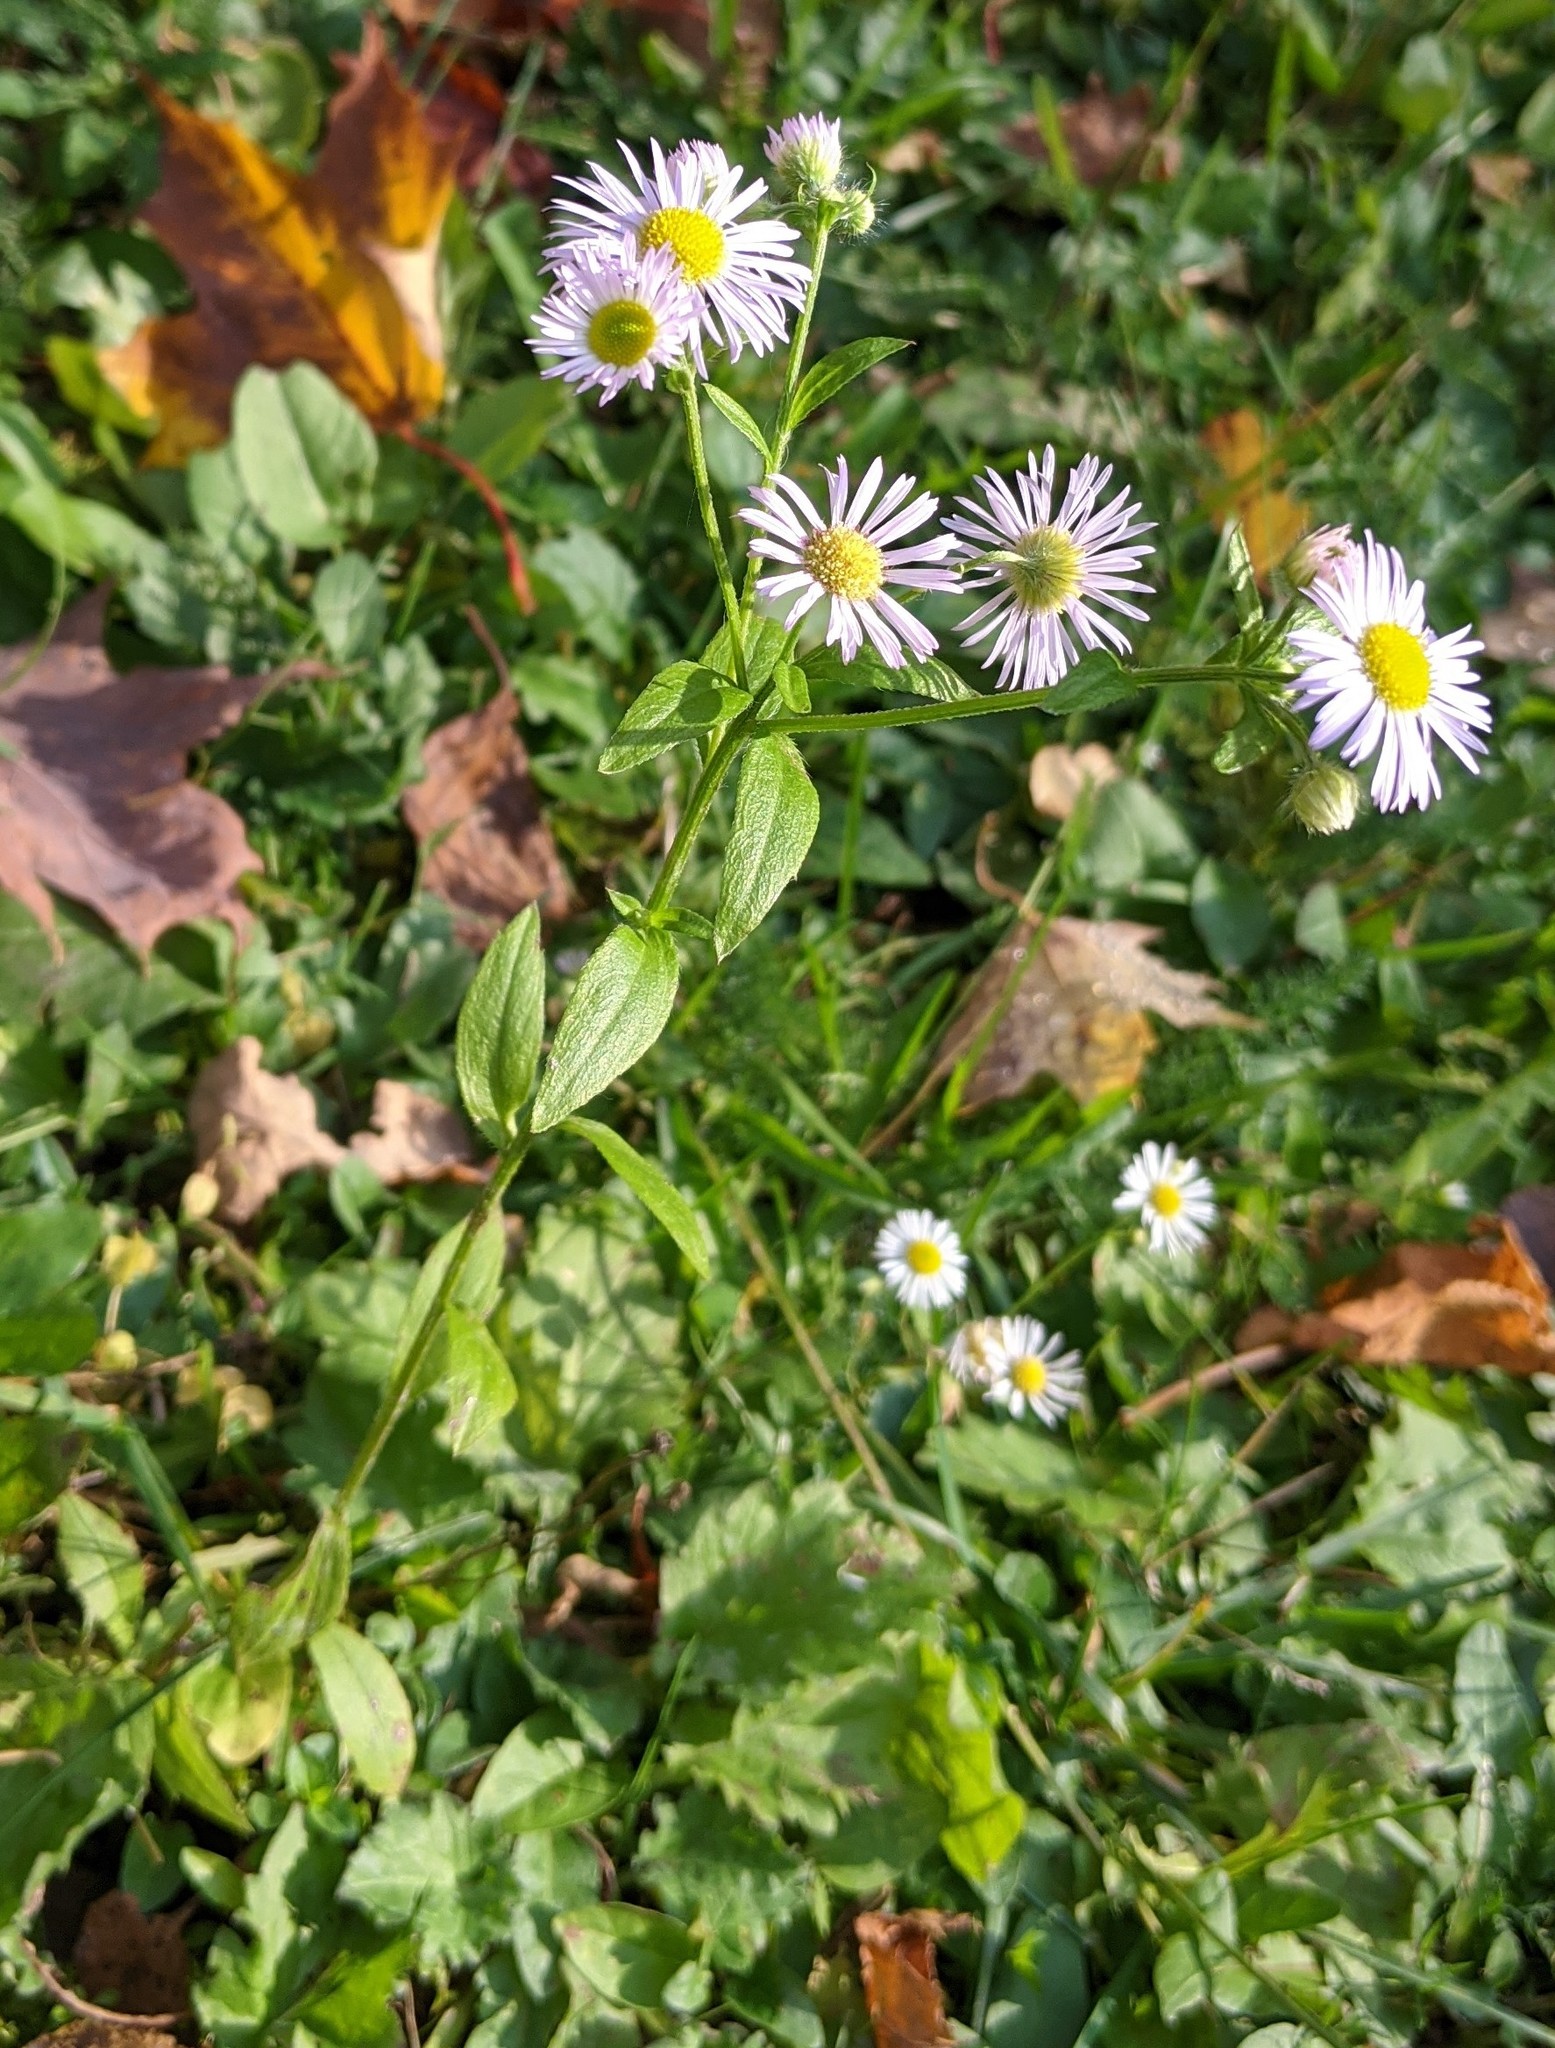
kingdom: Plantae
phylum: Tracheophyta
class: Magnoliopsida
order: Asterales
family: Asteraceae
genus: Erigeron
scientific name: Erigeron strigosus
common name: Common eastern fleabane
